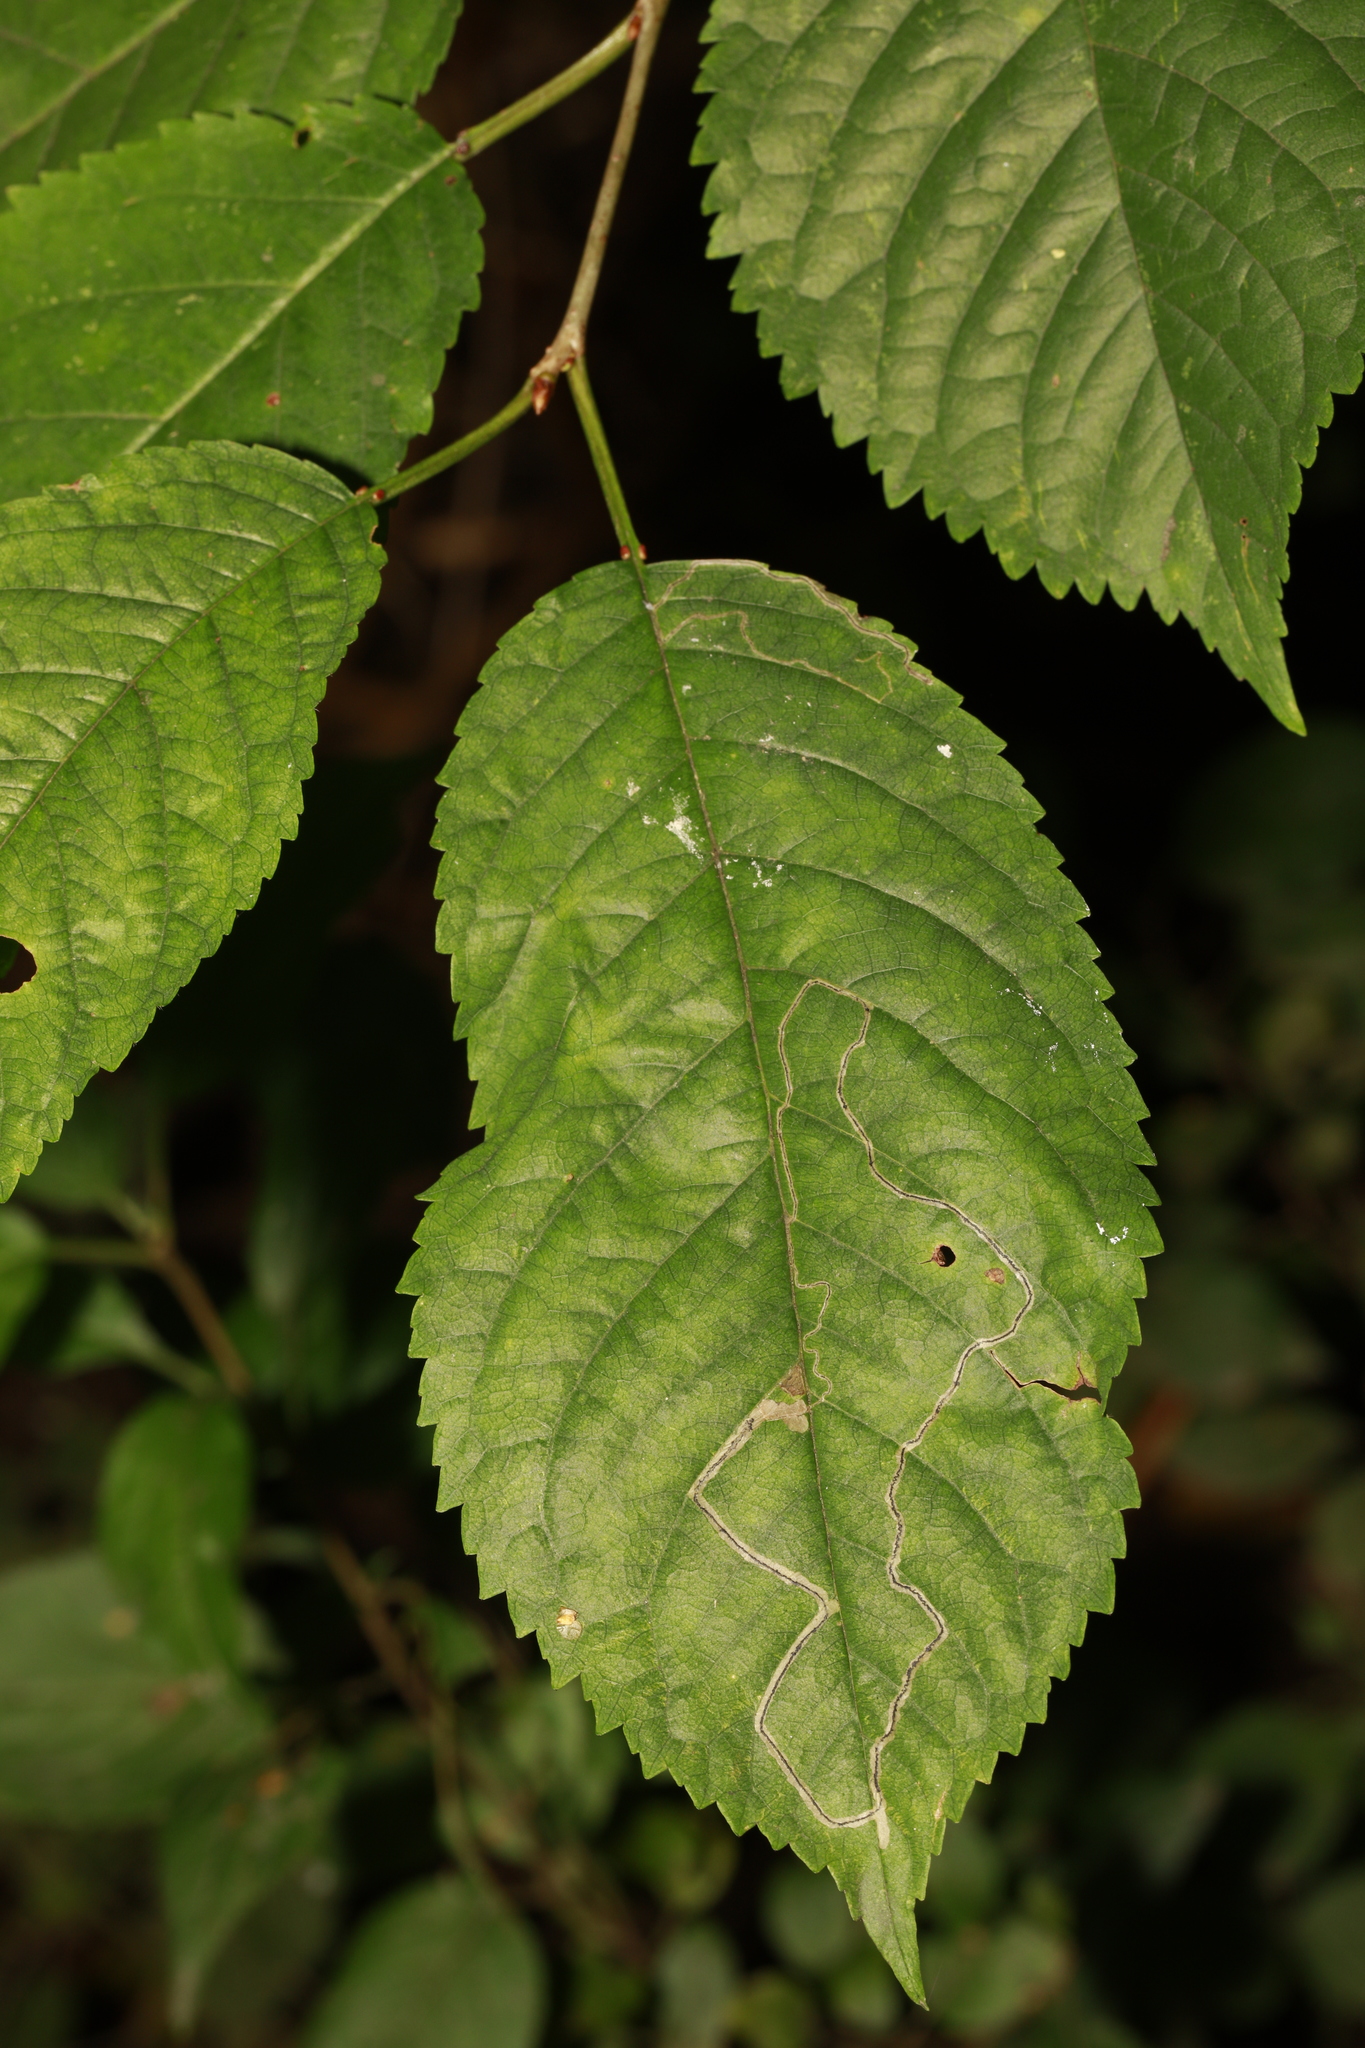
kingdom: Animalia
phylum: Arthropoda
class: Insecta
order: Lepidoptera
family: Lyonetiidae
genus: Lyonetia
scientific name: Lyonetia clerkella
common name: Apple leaf miner
